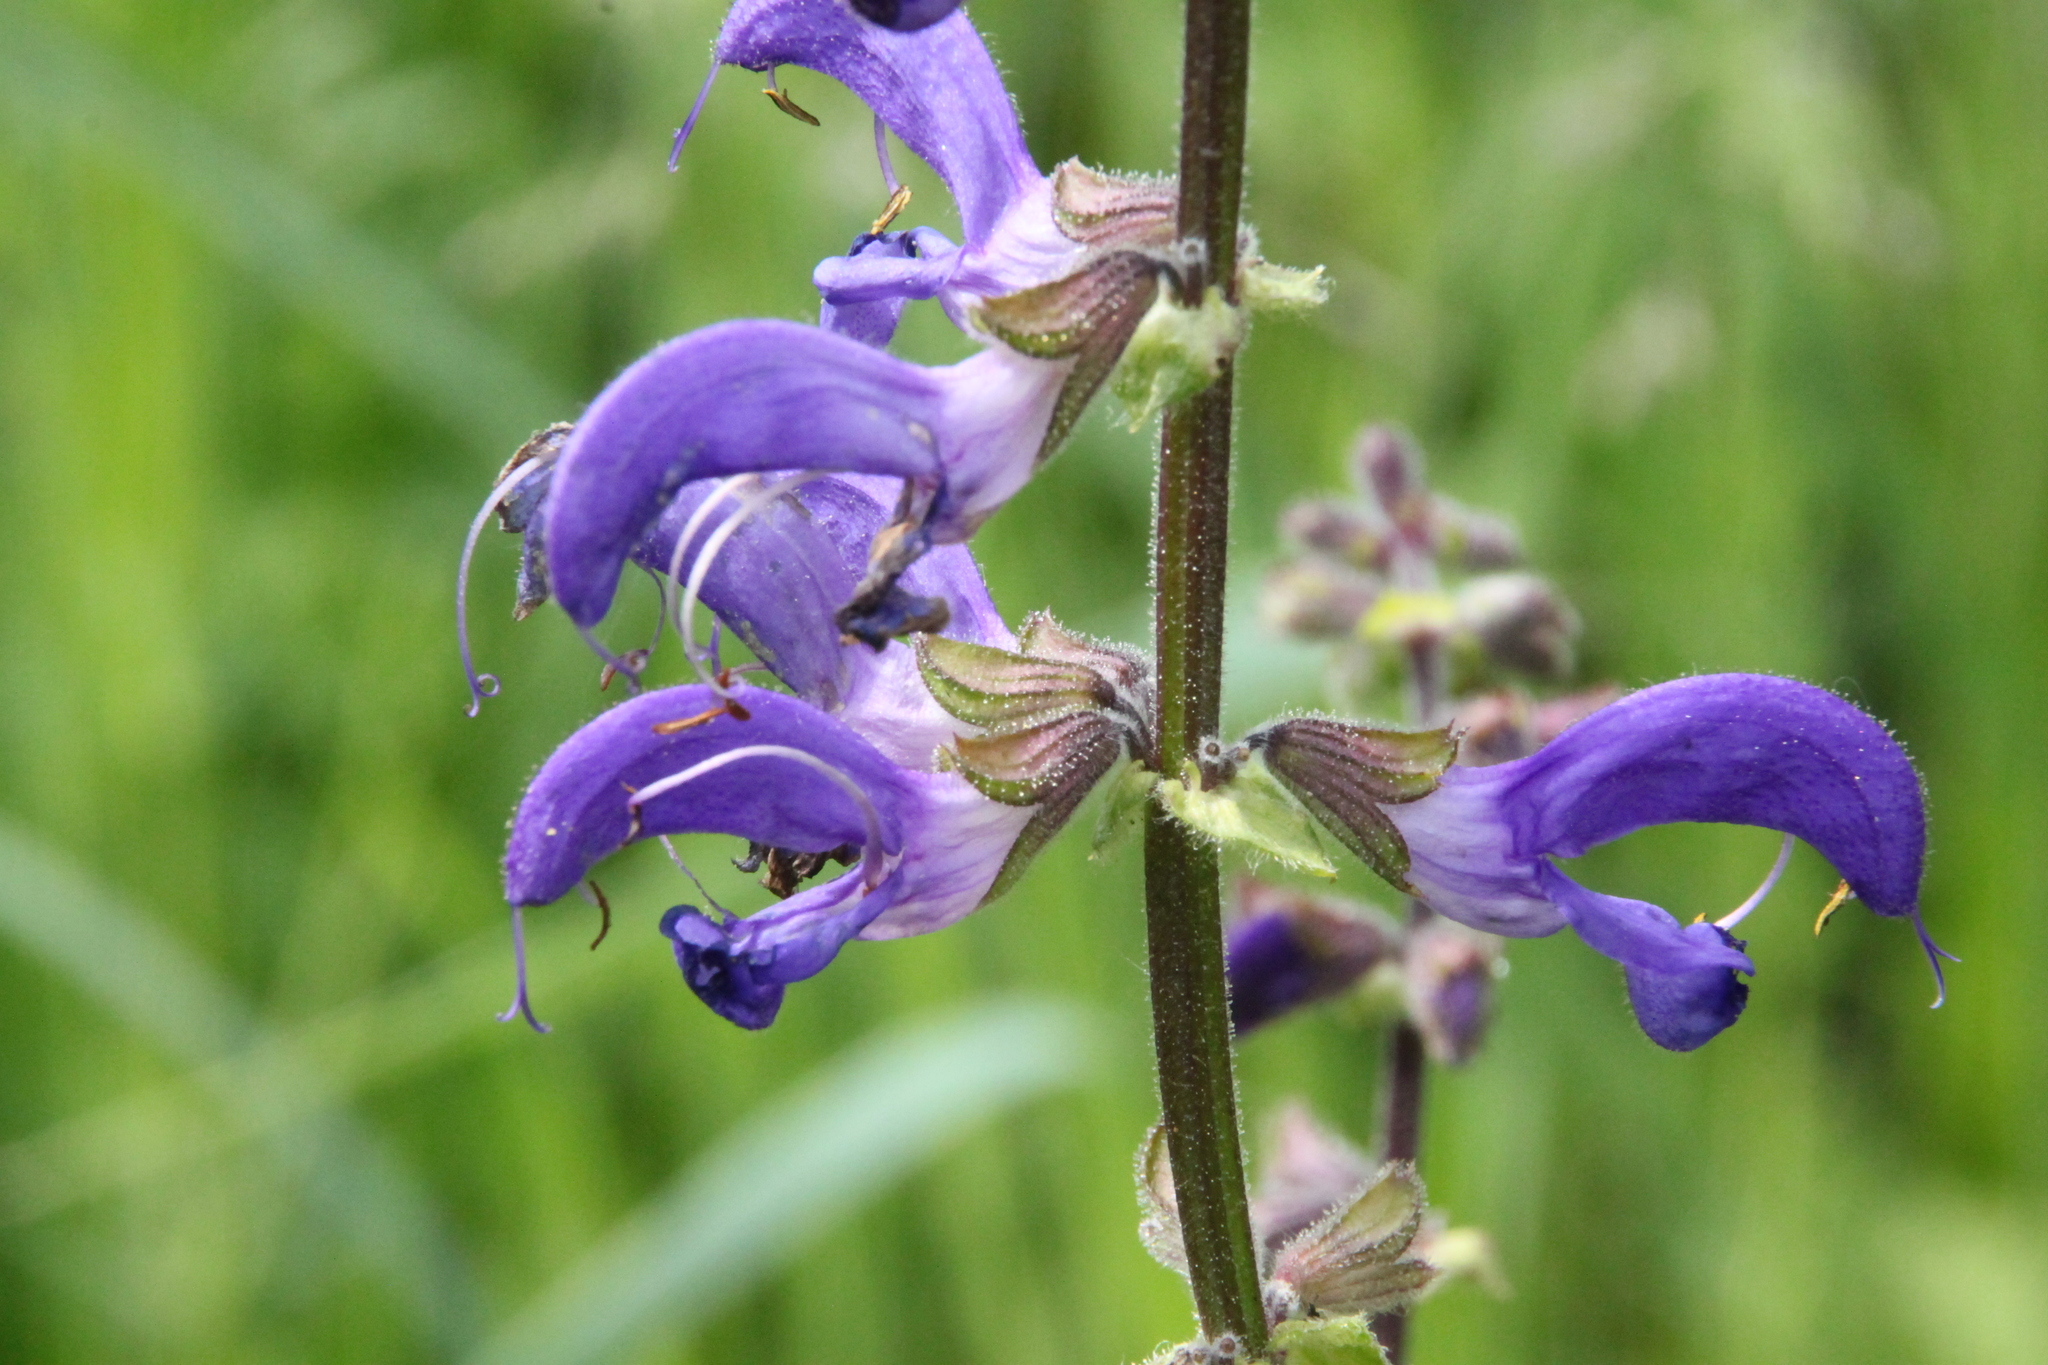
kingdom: Plantae
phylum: Tracheophyta
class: Magnoliopsida
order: Lamiales
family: Lamiaceae
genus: Salvia
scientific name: Salvia pratensis
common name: Meadow sage
